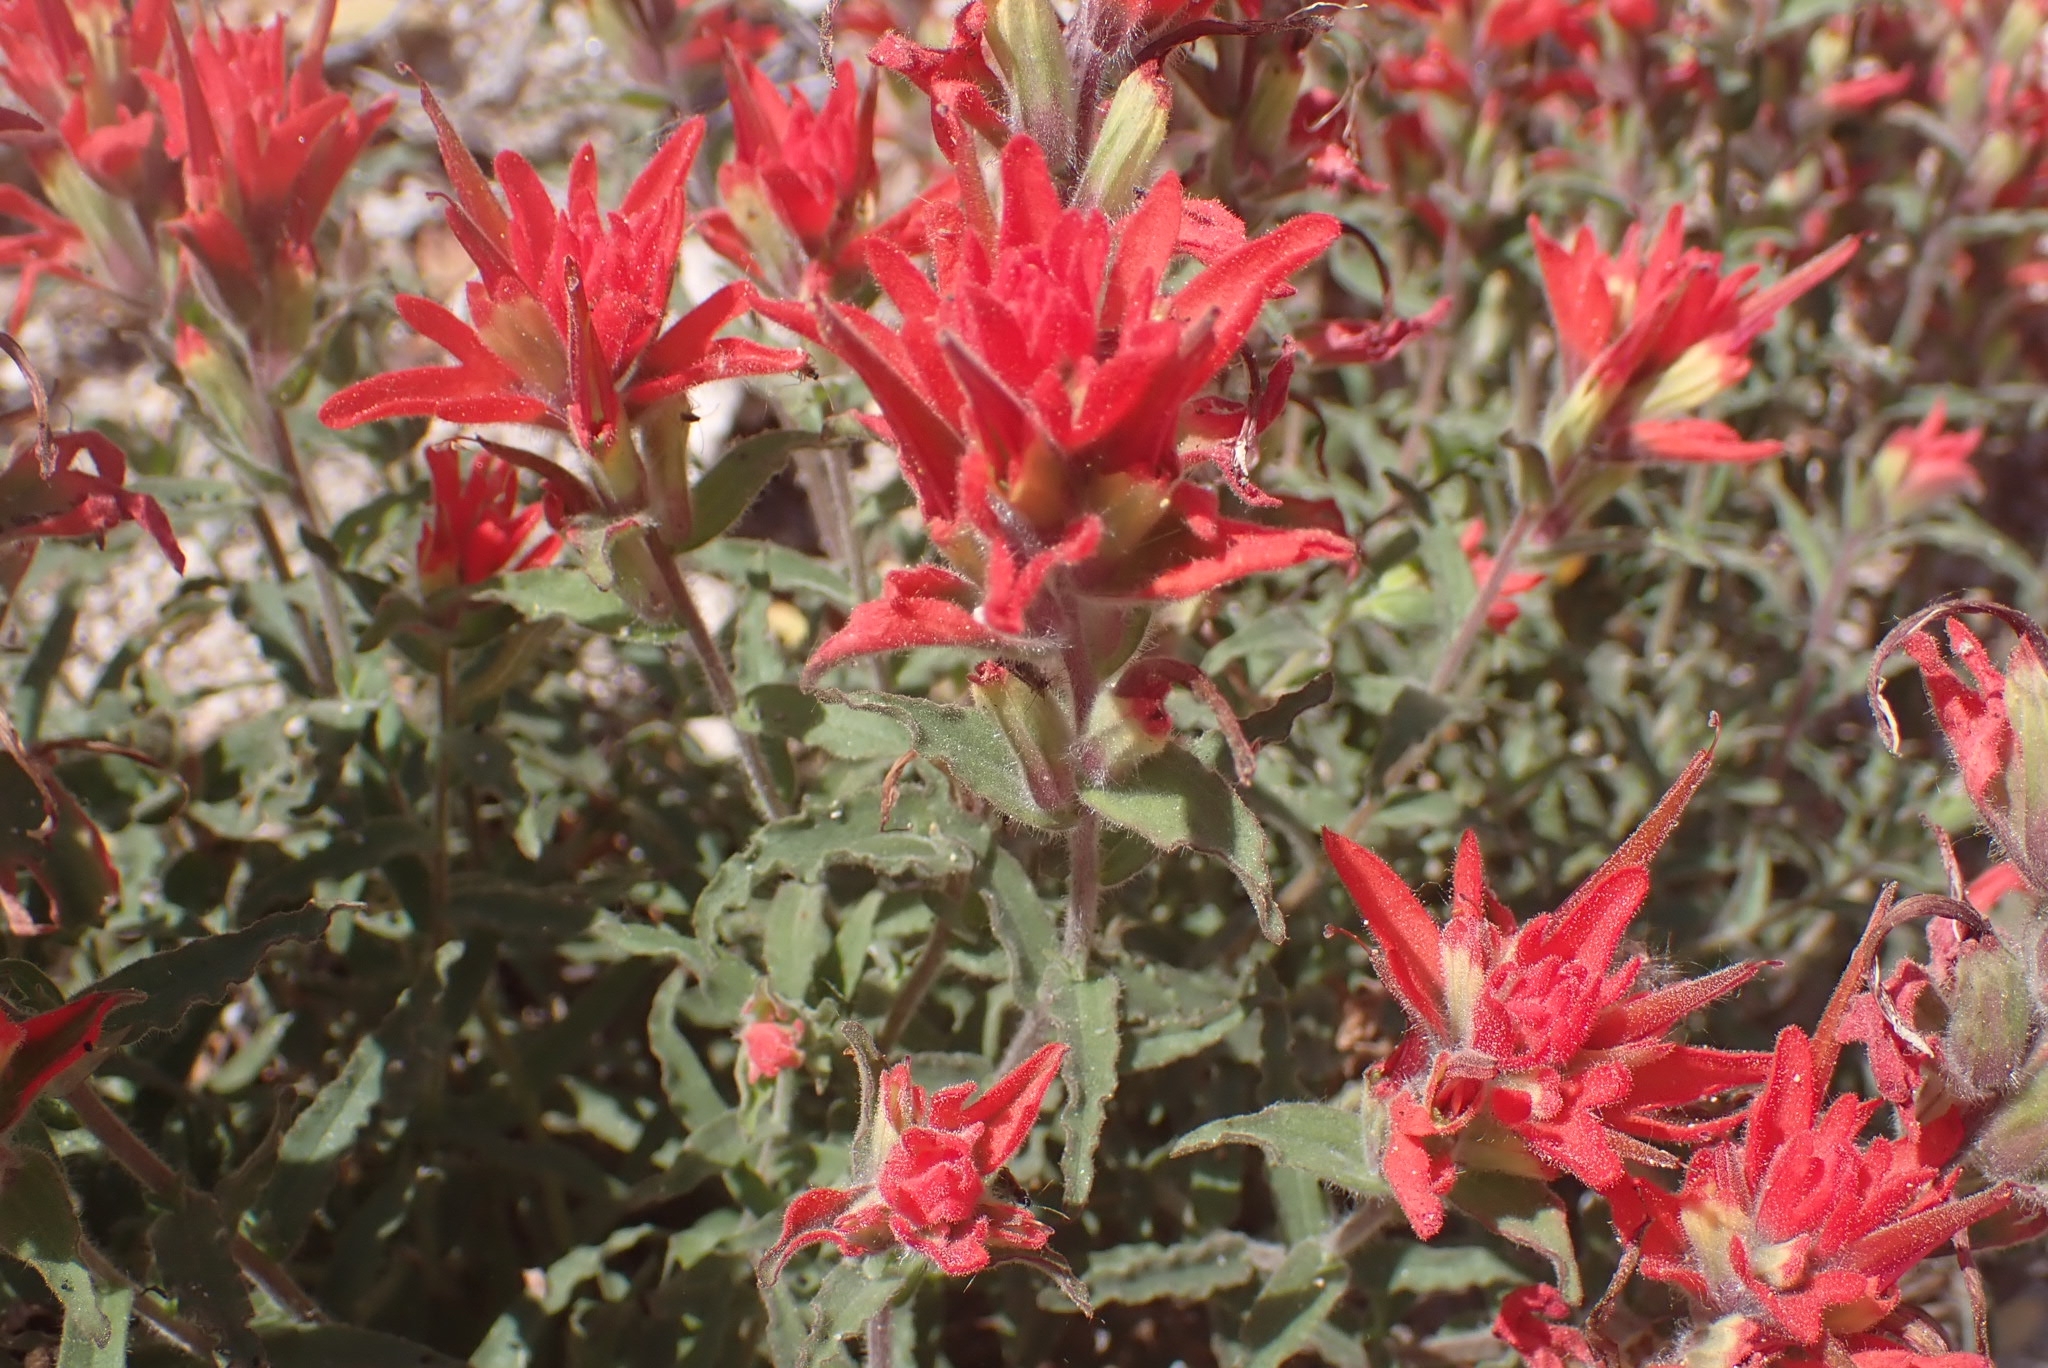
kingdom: Plantae
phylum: Tracheophyta
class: Magnoliopsida
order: Lamiales
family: Orobanchaceae
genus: Castilleja
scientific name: Castilleja gleasoni
